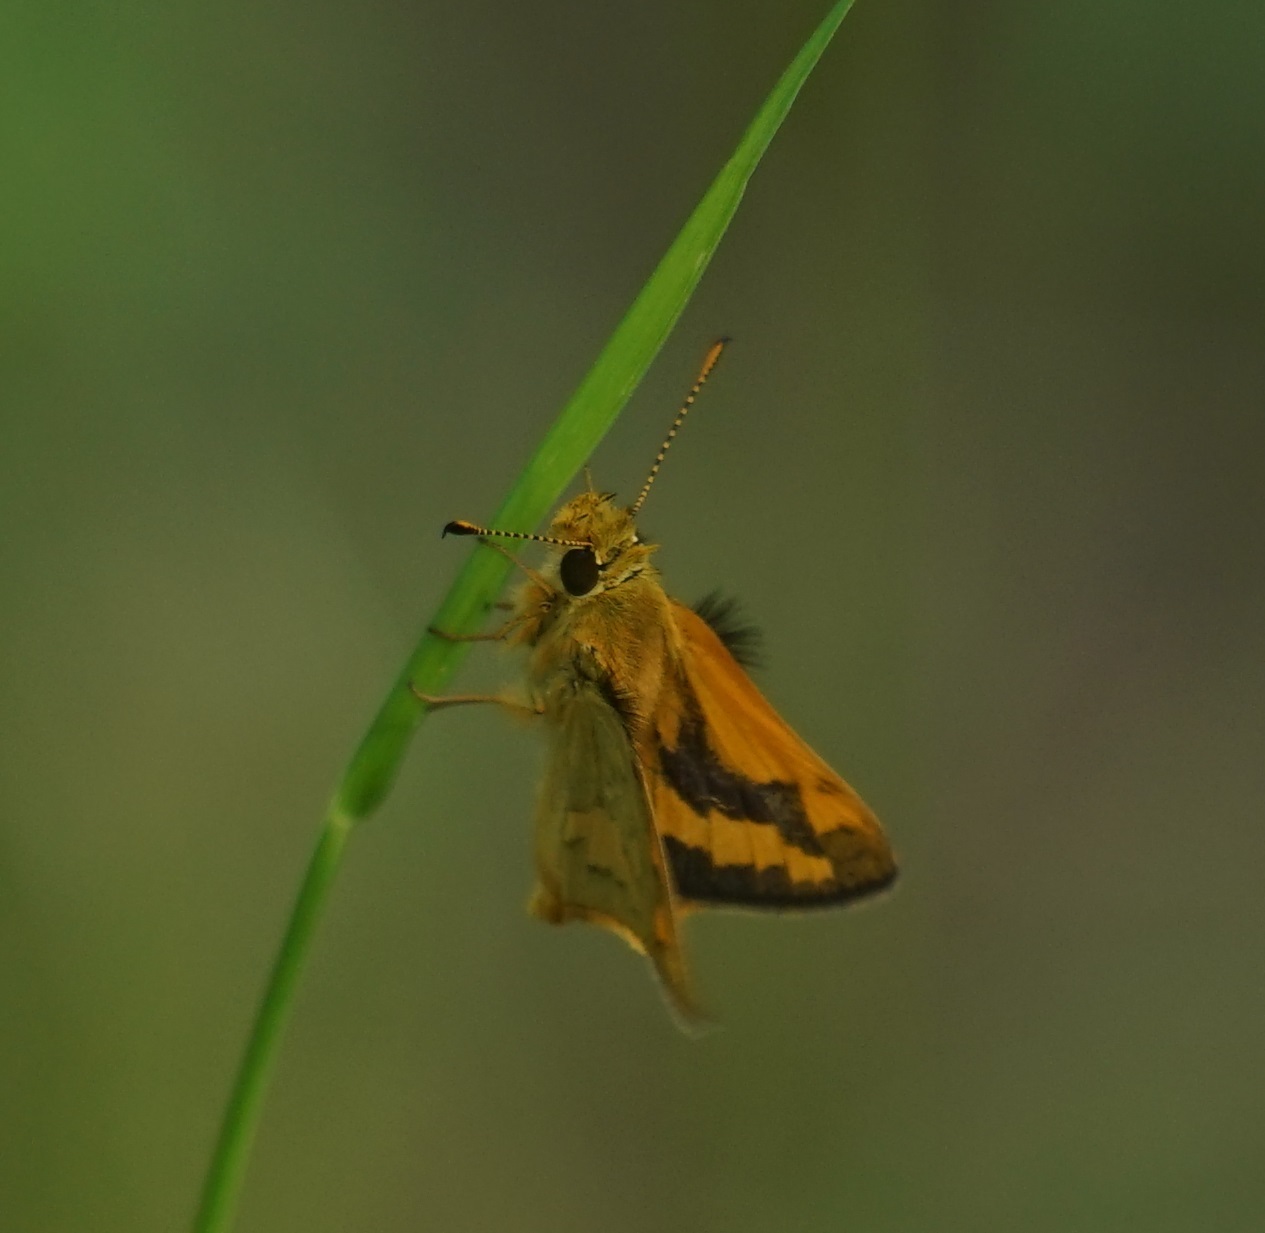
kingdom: Animalia
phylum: Arthropoda
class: Insecta
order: Lepidoptera
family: Hesperiidae
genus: Ocybadistes
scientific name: Ocybadistes walkeri
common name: Yellow-banded dart
